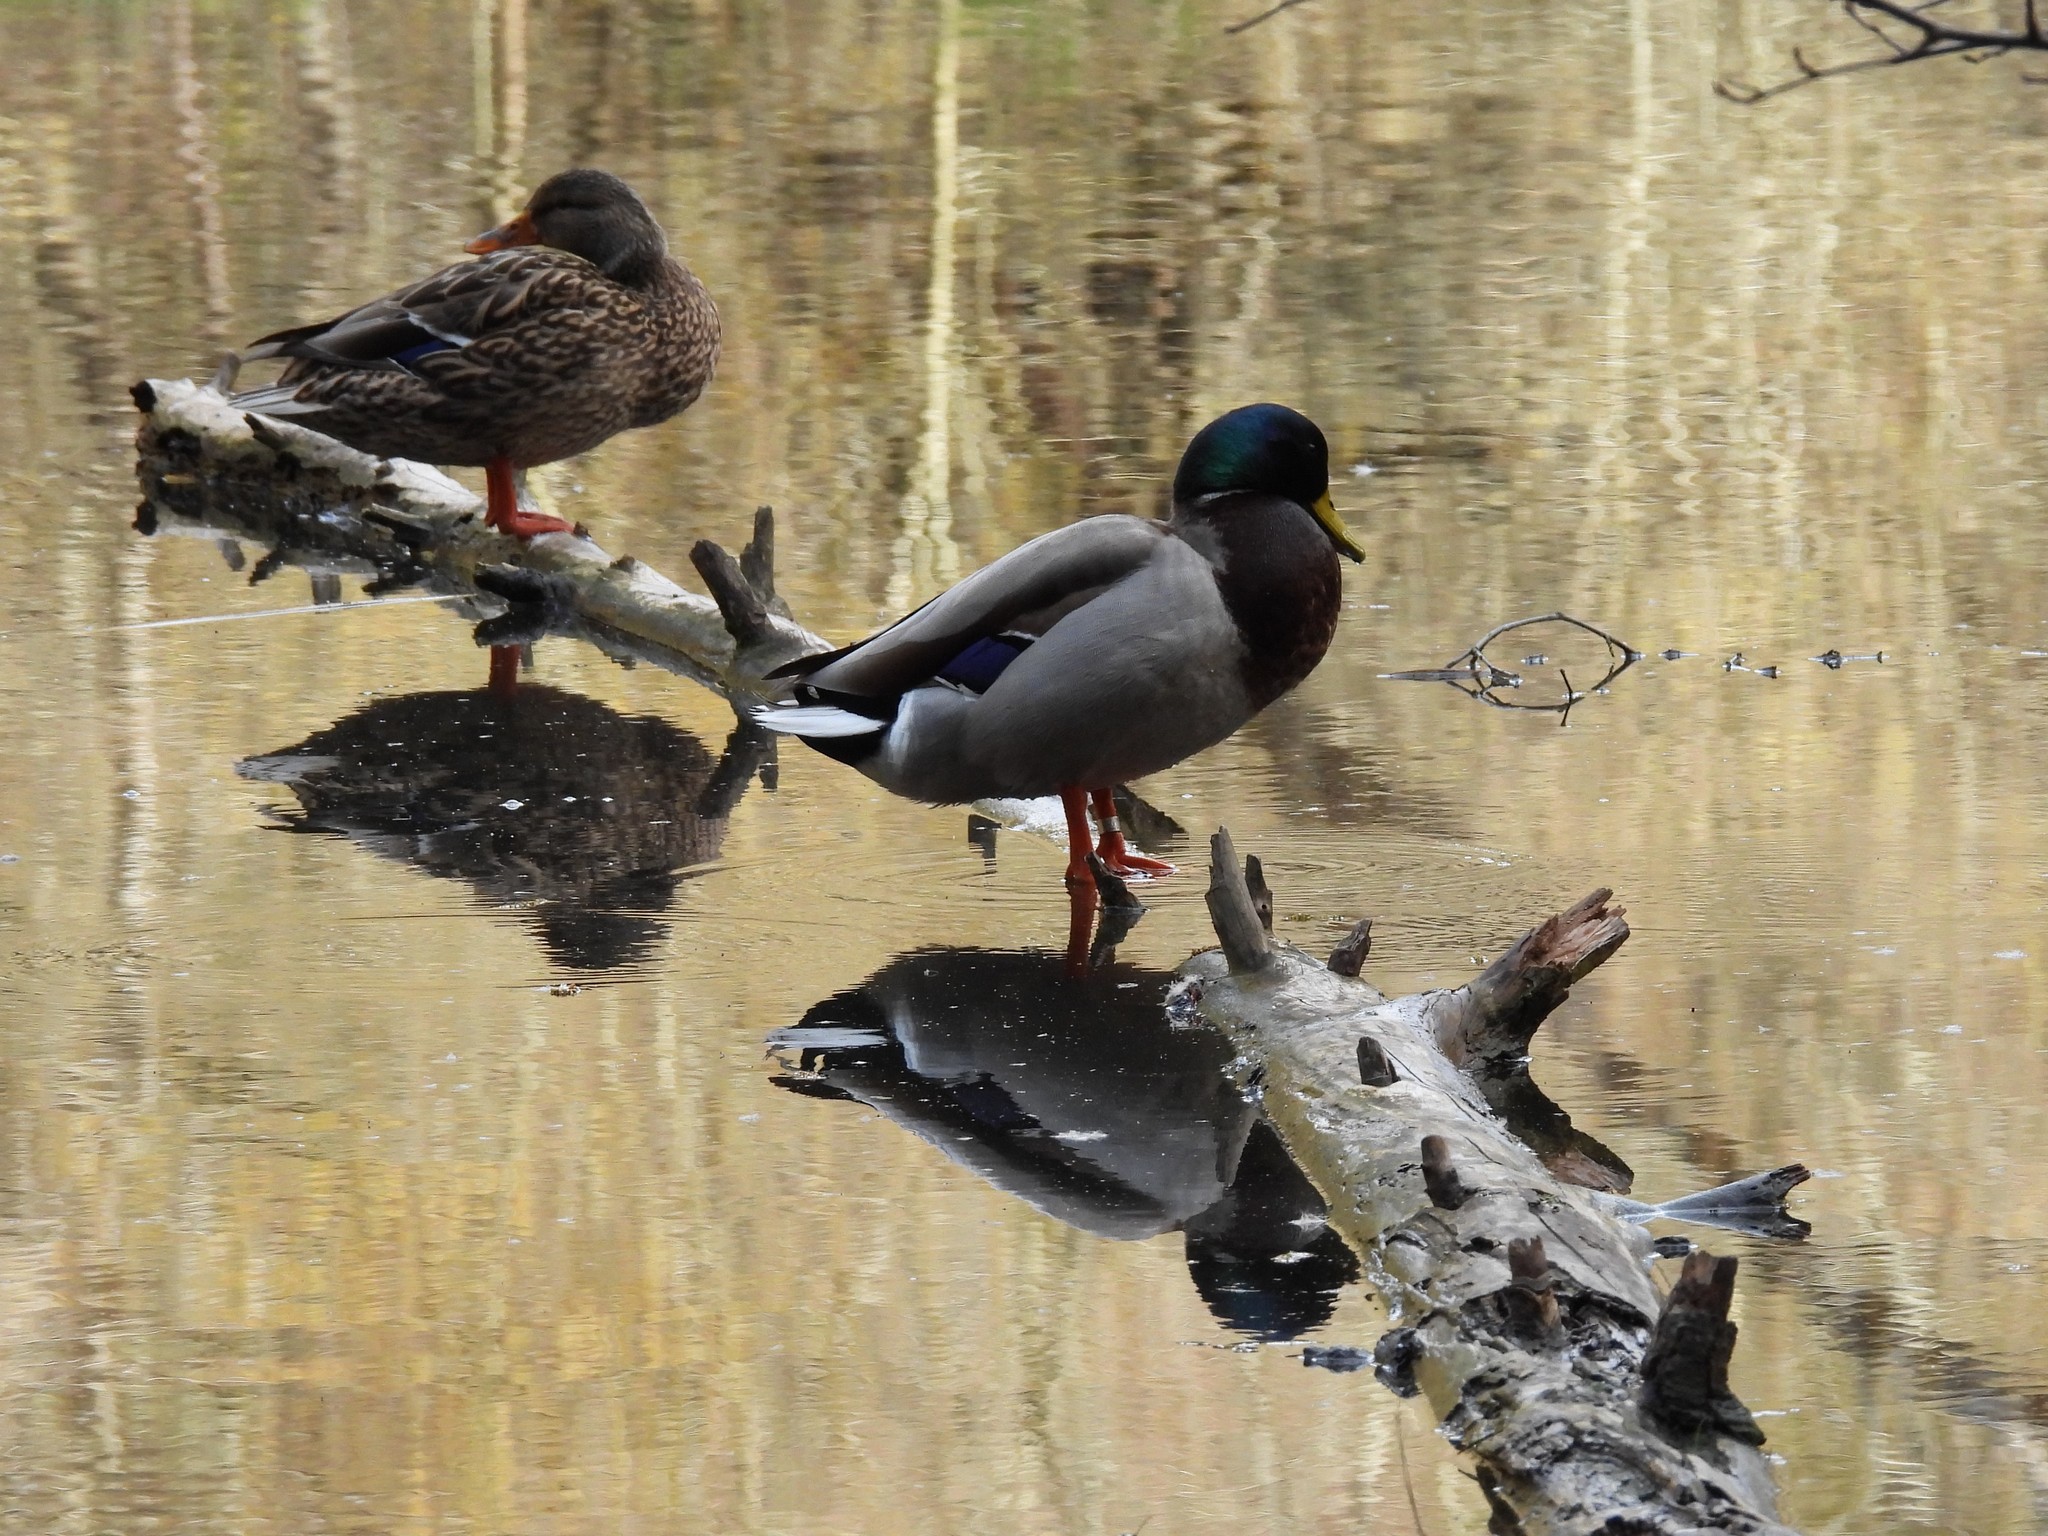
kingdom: Animalia
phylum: Chordata
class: Aves
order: Anseriformes
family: Anatidae
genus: Anas
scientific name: Anas platyrhynchos
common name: Mallard
